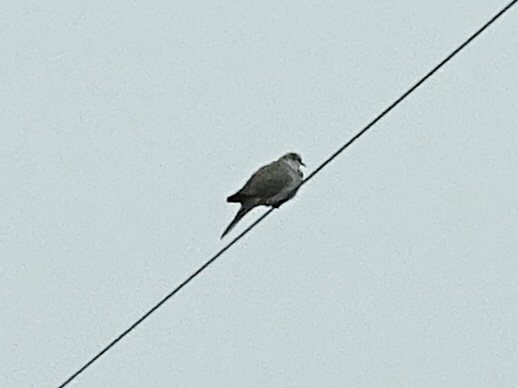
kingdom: Animalia
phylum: Chordata
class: Aves
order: Columbiformes
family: Columbidae
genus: Zenaida
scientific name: Zenaida macroura
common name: Mourning dove
